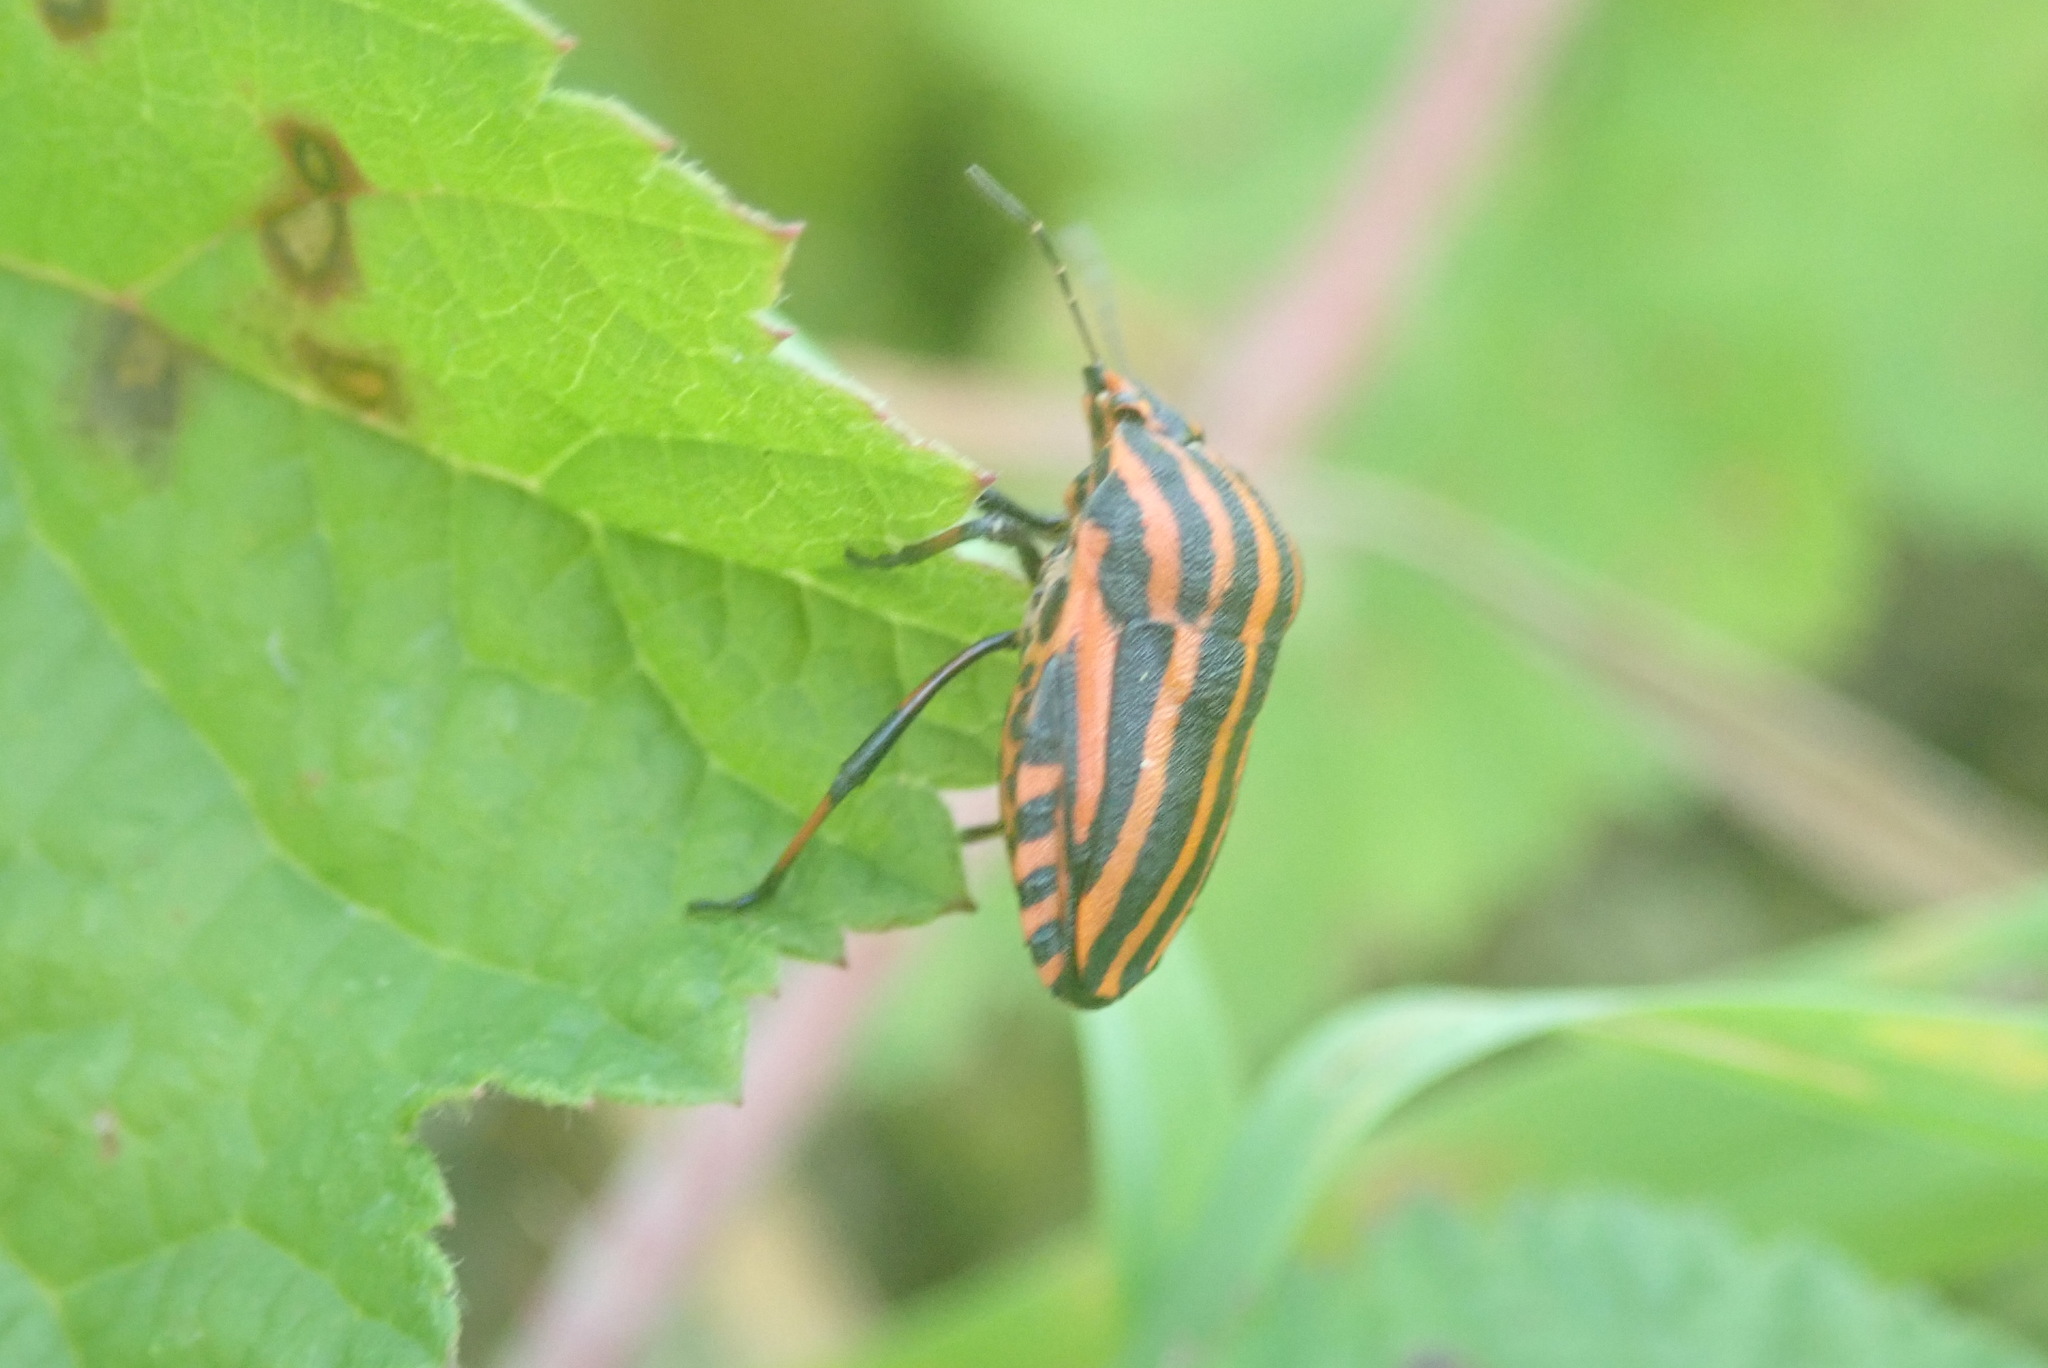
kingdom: Animalia
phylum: Arthropoda
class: Insecta
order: Hemiptera
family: Pentatomidae
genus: Graphosoma
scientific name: Graphosoma italicum
